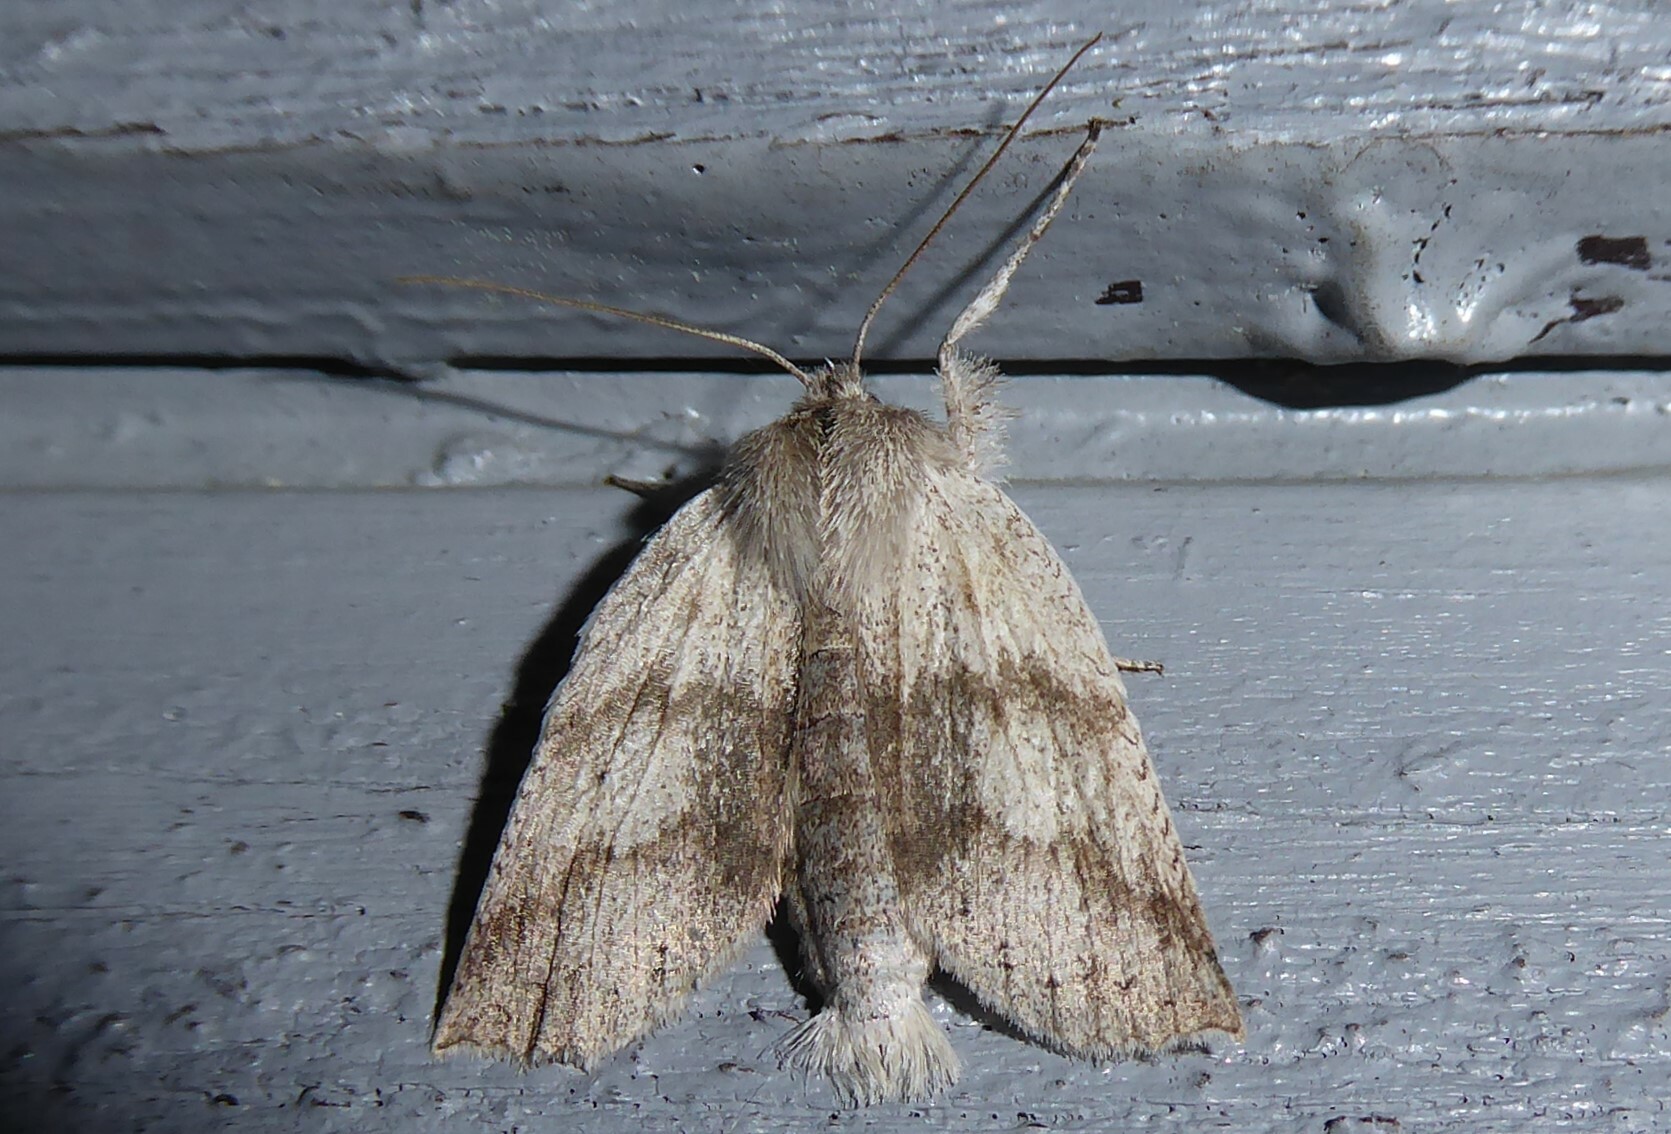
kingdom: Animalia
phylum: Arthropoda
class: Insecta
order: Lepidoptera
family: Geometridae
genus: Declana
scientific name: Declana leptomera
